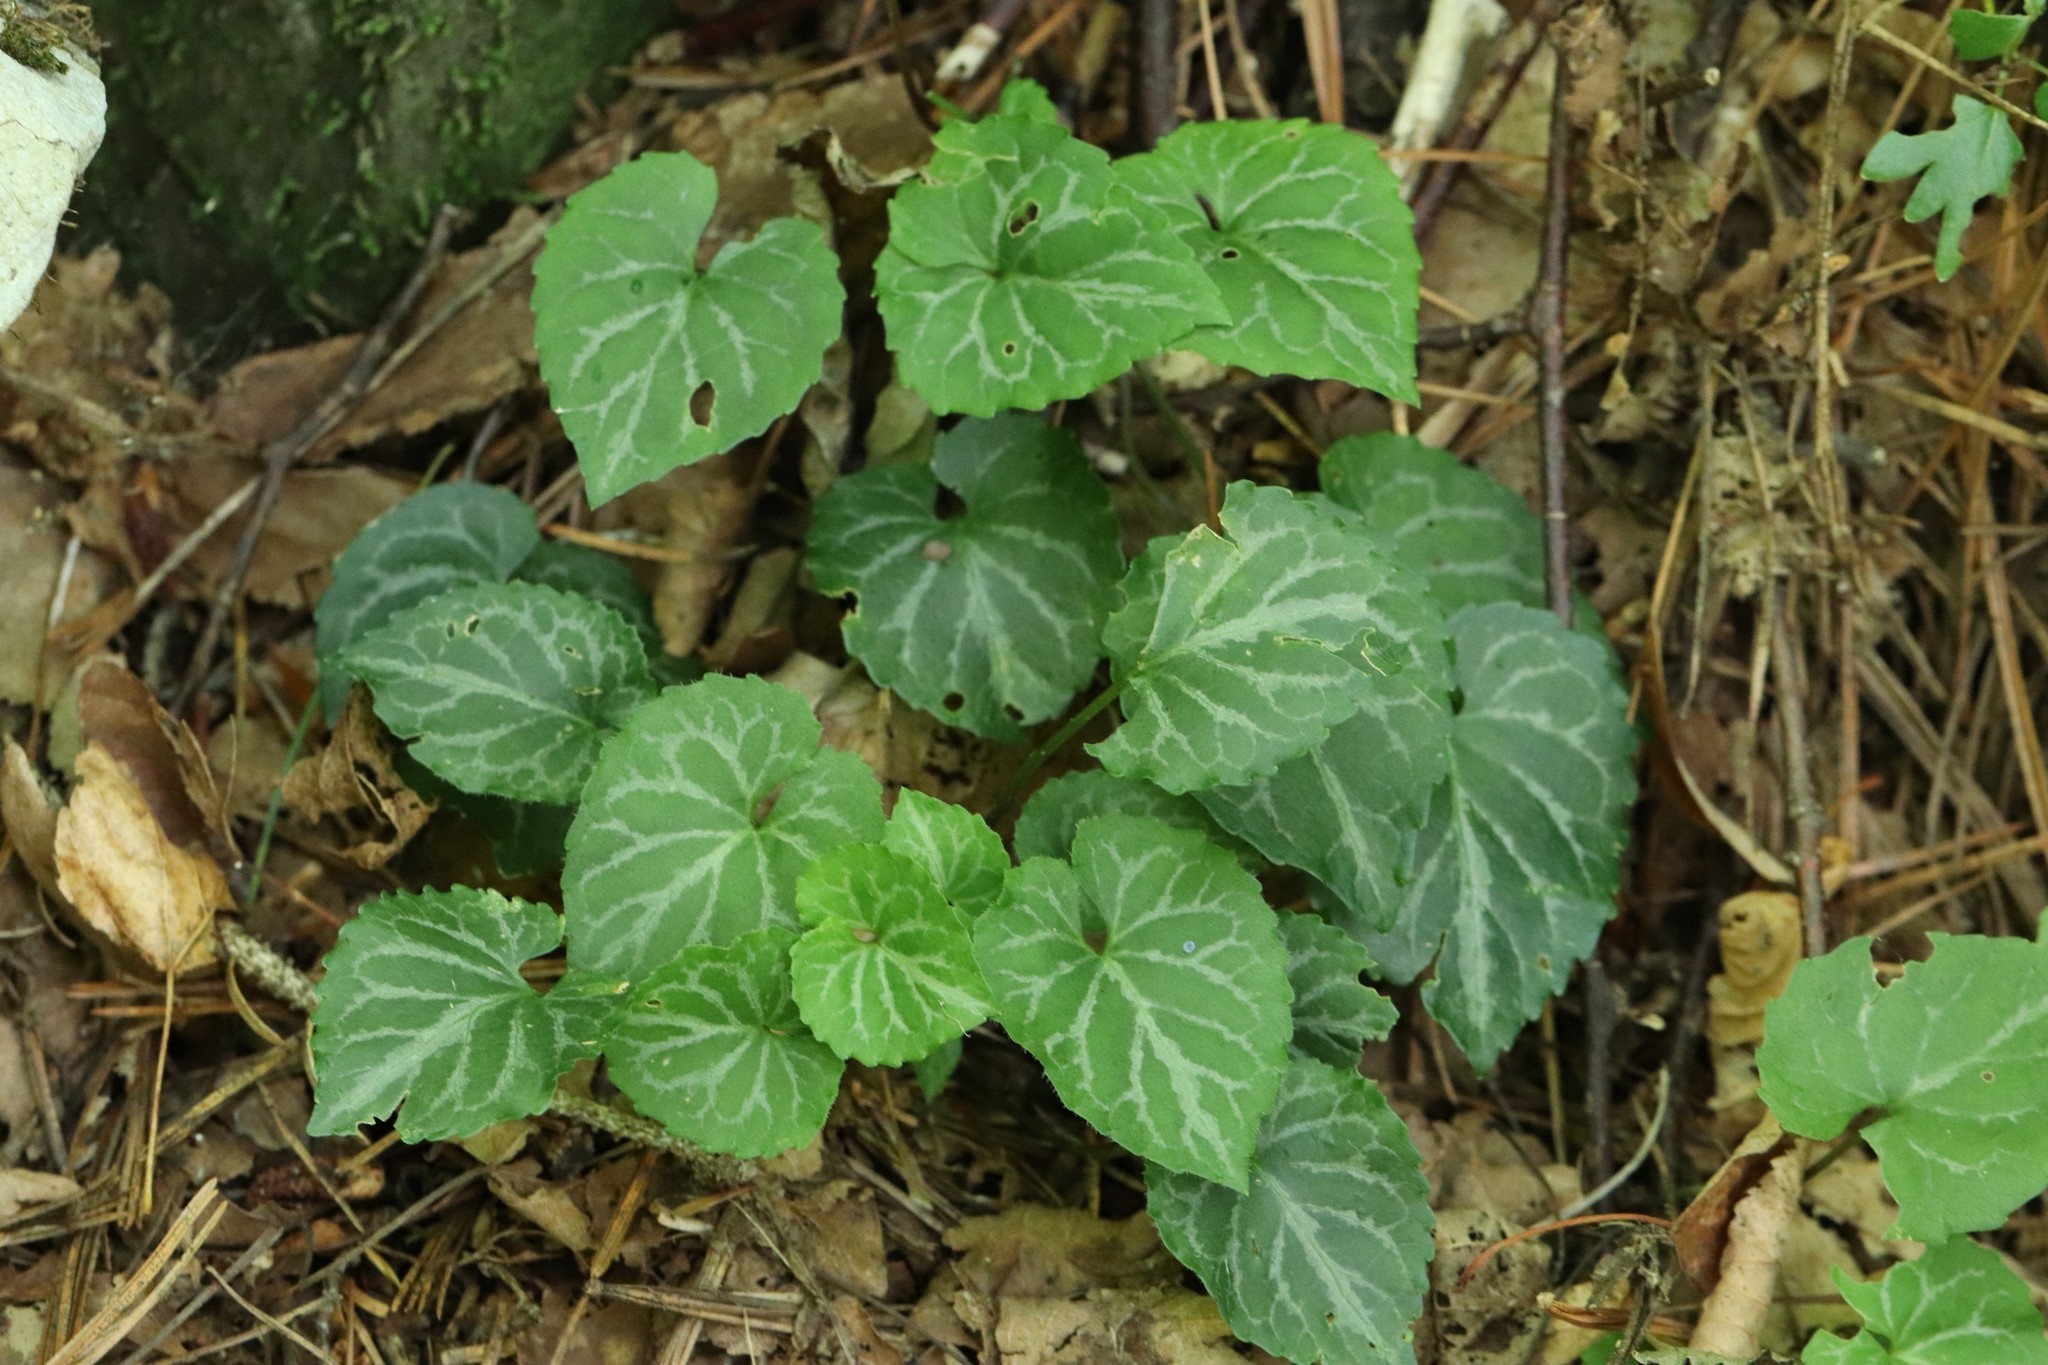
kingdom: Plantae
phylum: Tracheophyta
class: Magnoliopsida
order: Malpighiales
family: Violaceae
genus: Viola
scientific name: Viola selkirkii
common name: Selkirk's violet
